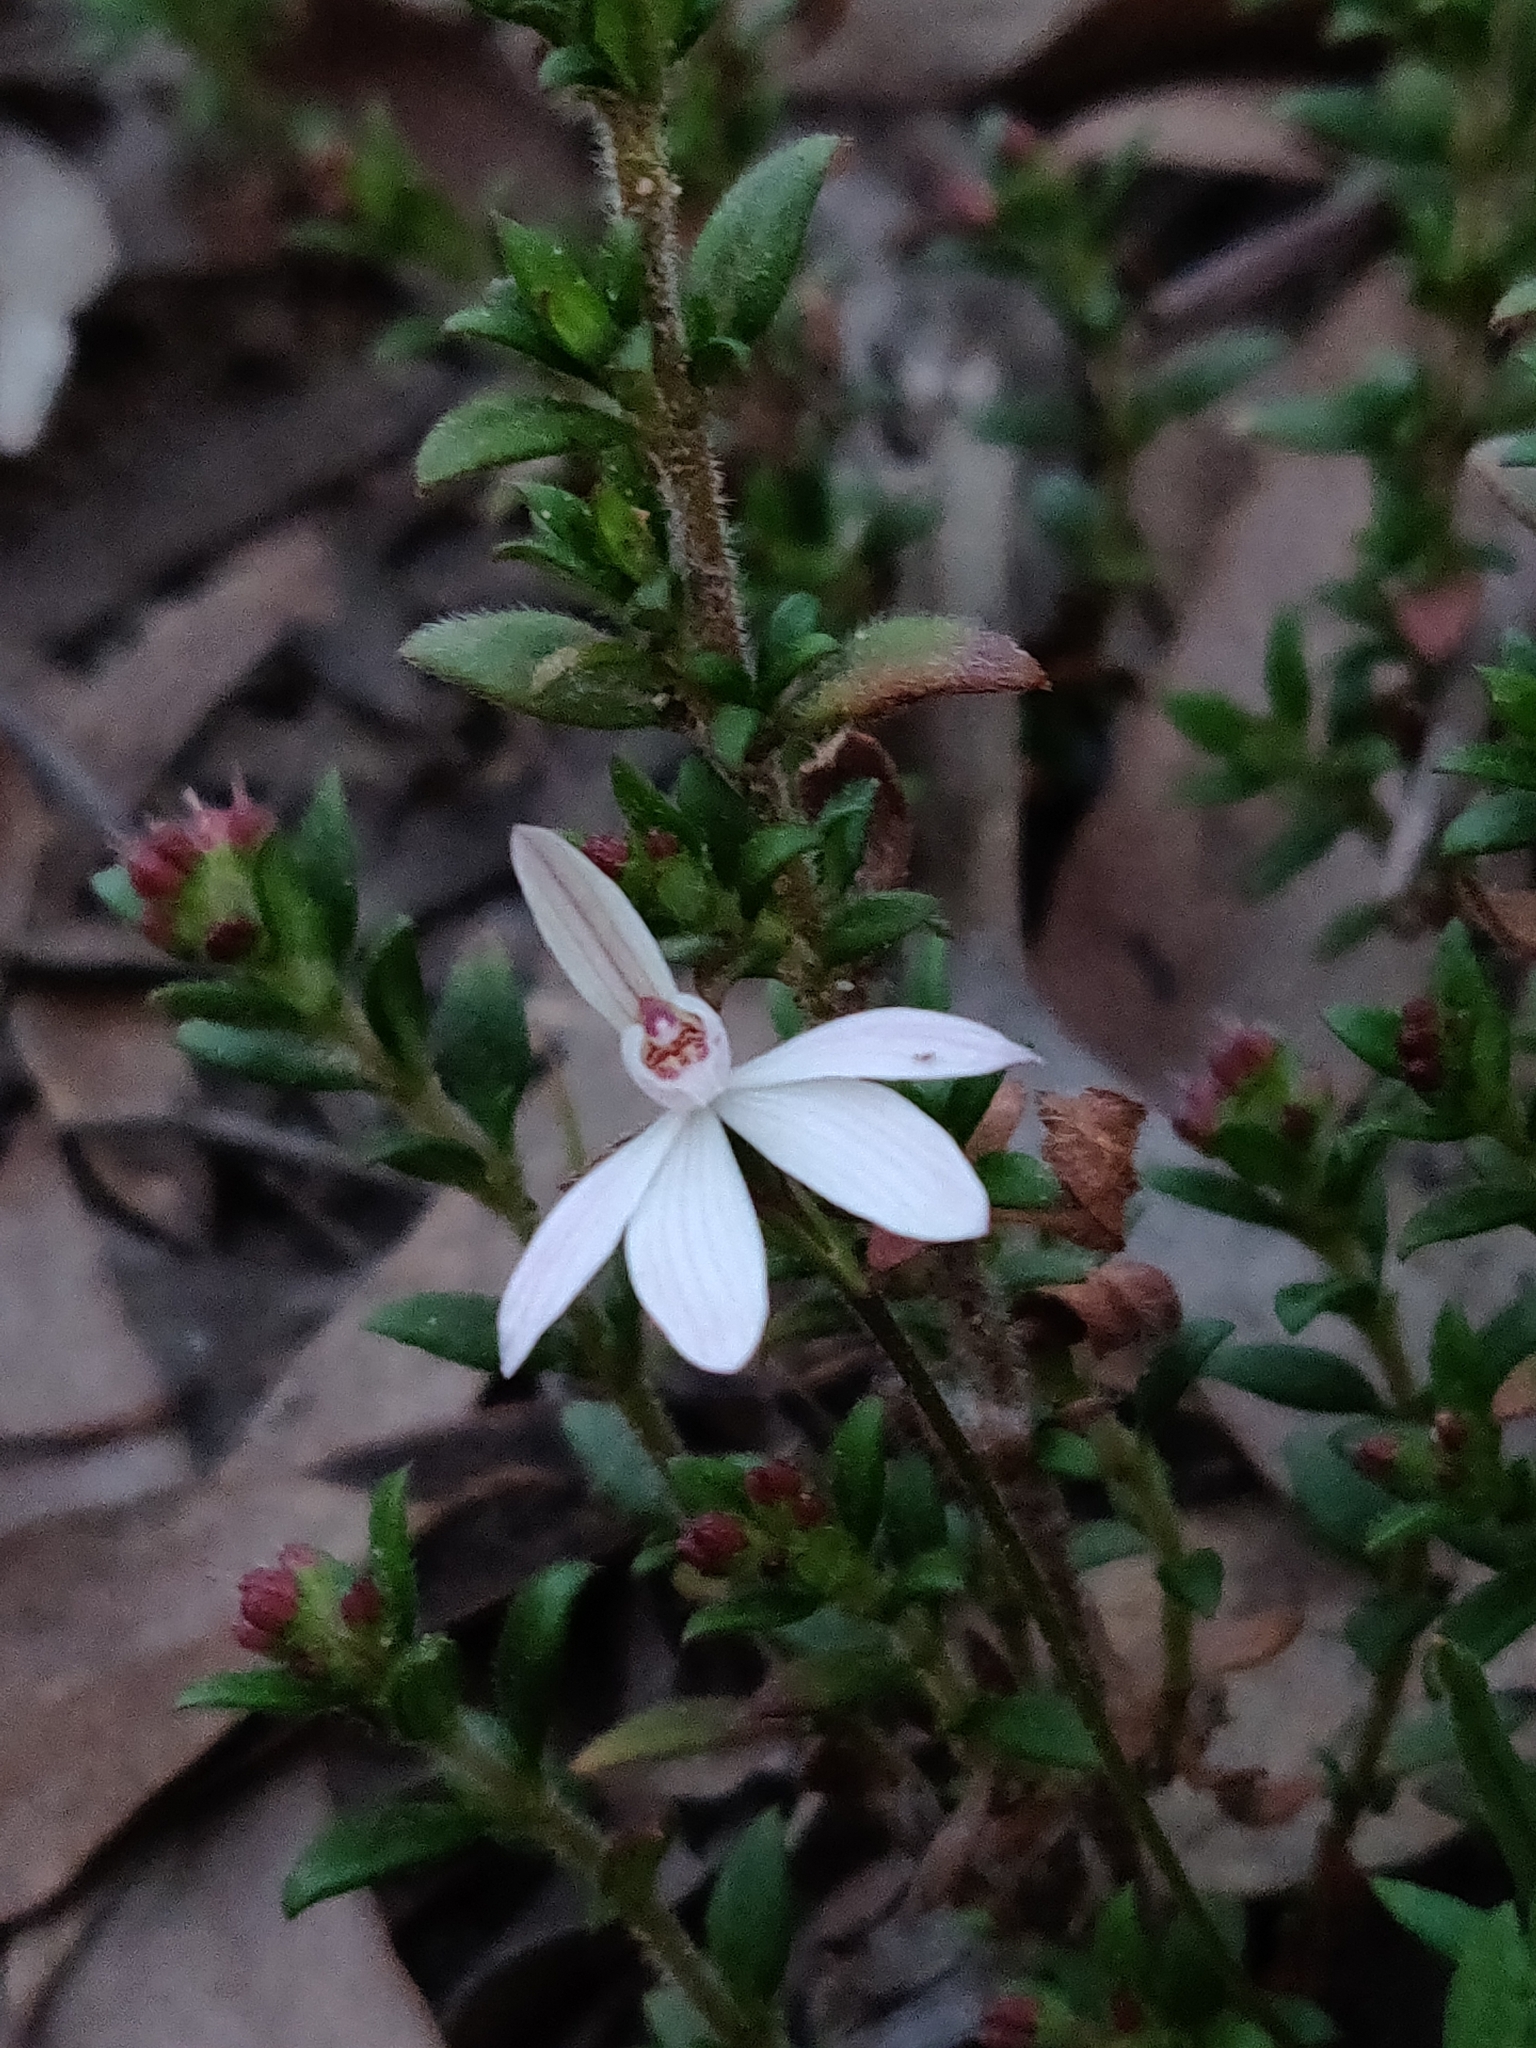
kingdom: Plantae
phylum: Tracheophyta
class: Liliopsida
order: Asparagales
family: Orchidaceae
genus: Caladenia
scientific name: Caladenia fuscata
